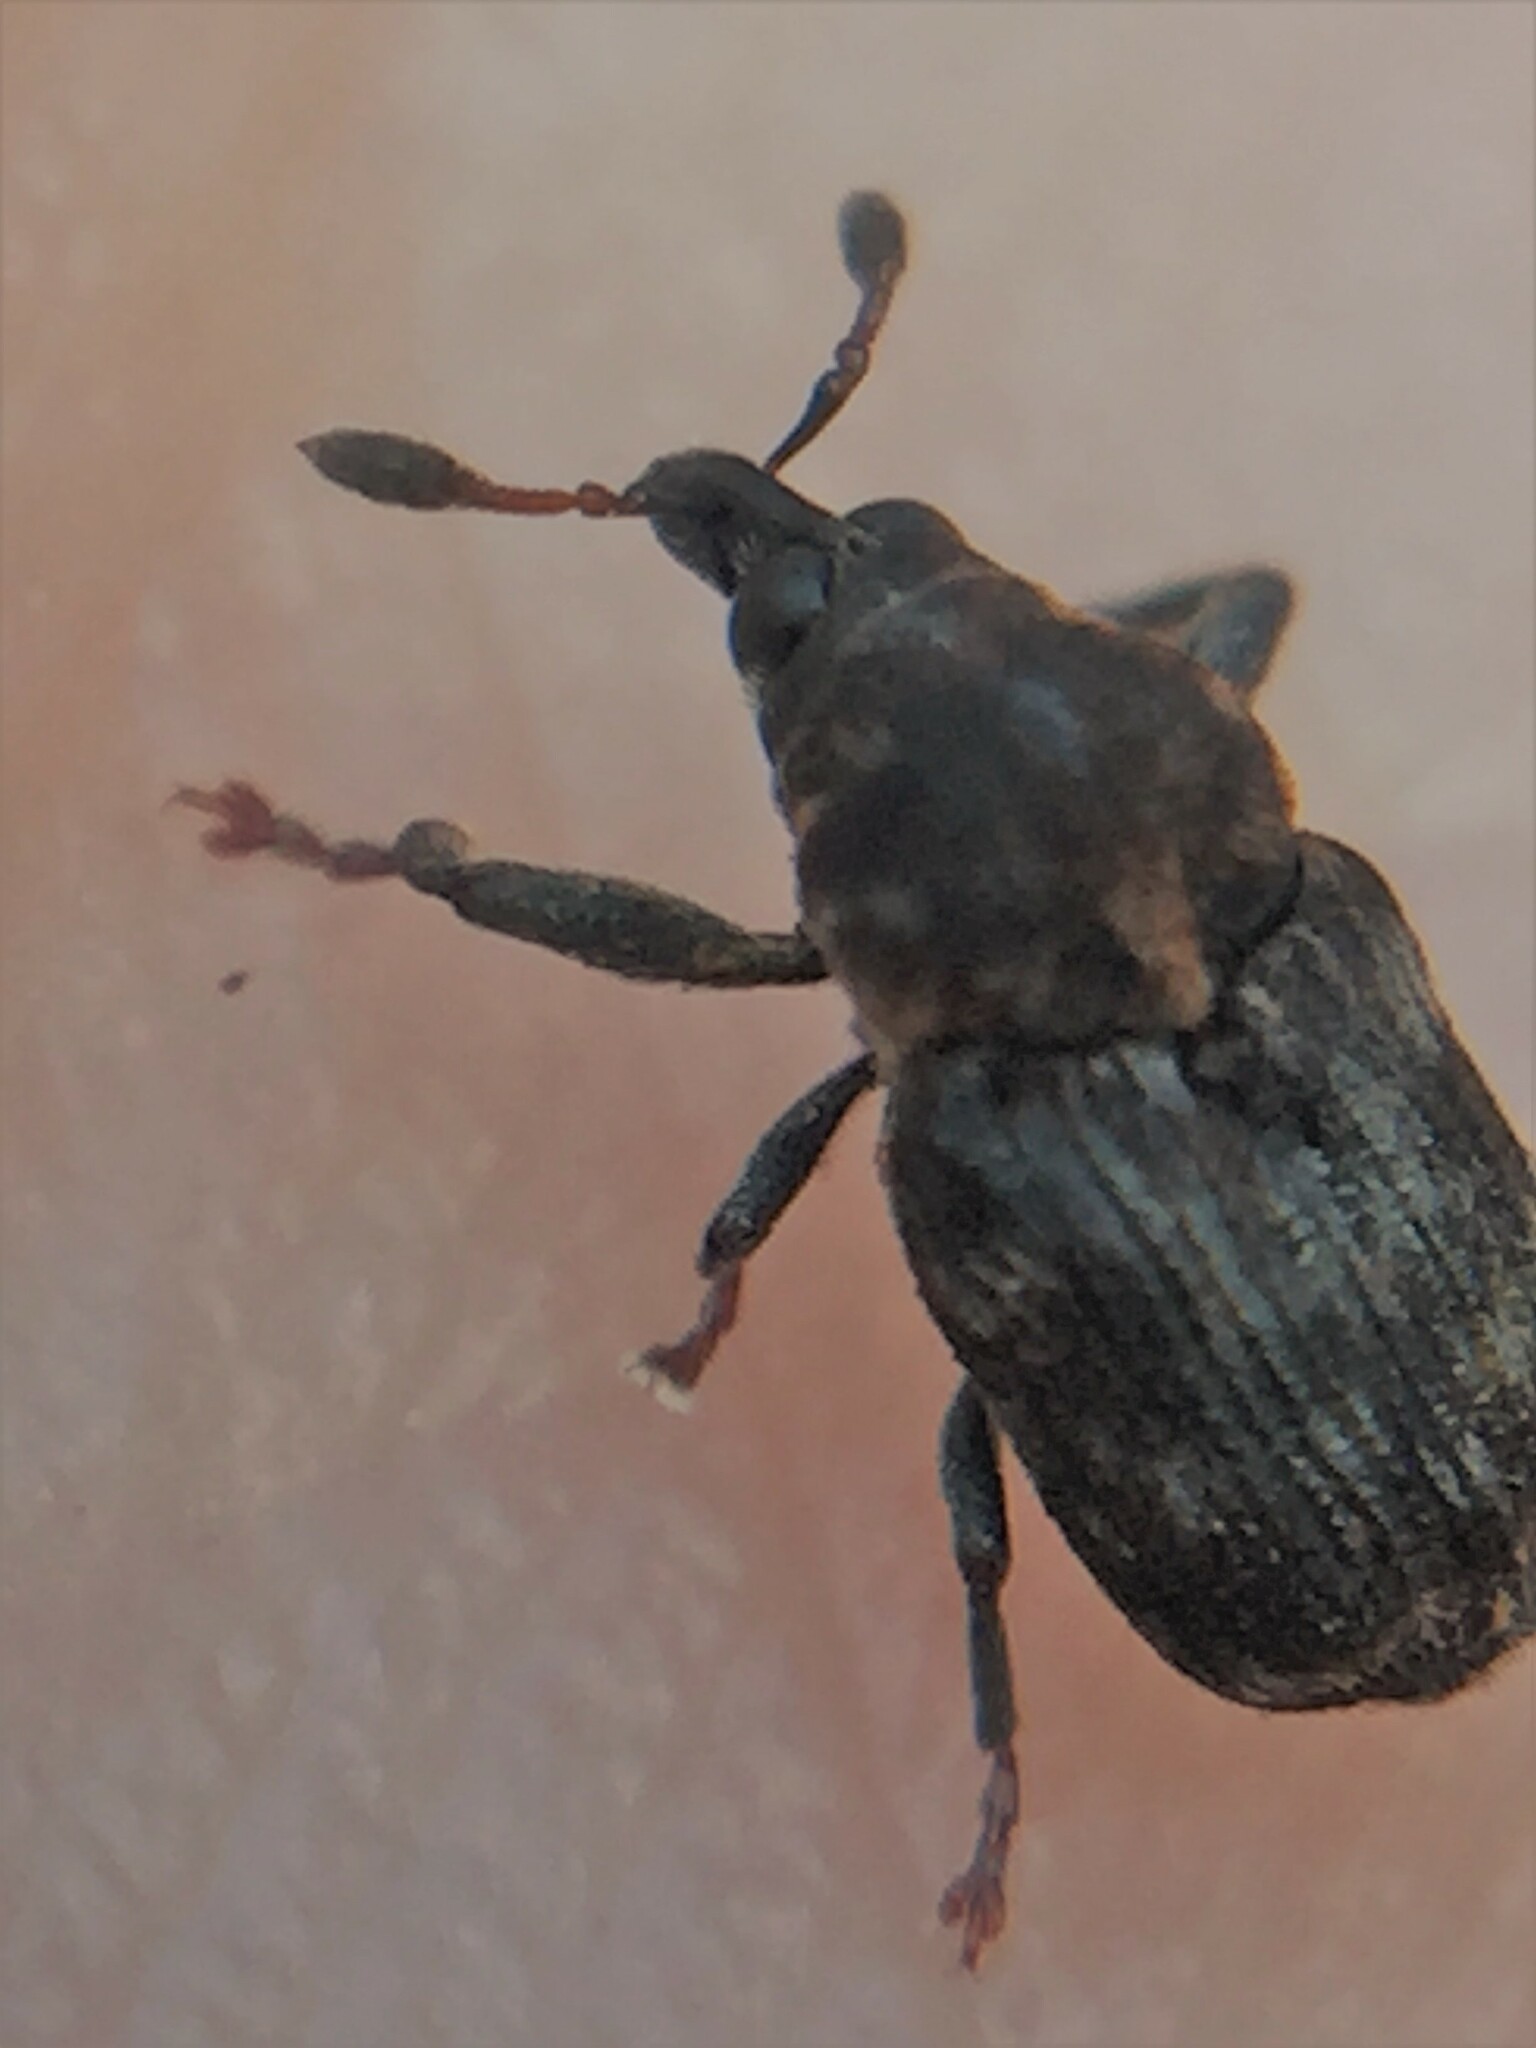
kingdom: Animalia
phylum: Arthropoda
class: Insecta
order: Coleoptera
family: Curculionidae
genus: Neolaemosaccus
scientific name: Neolaemosaccus narinus
